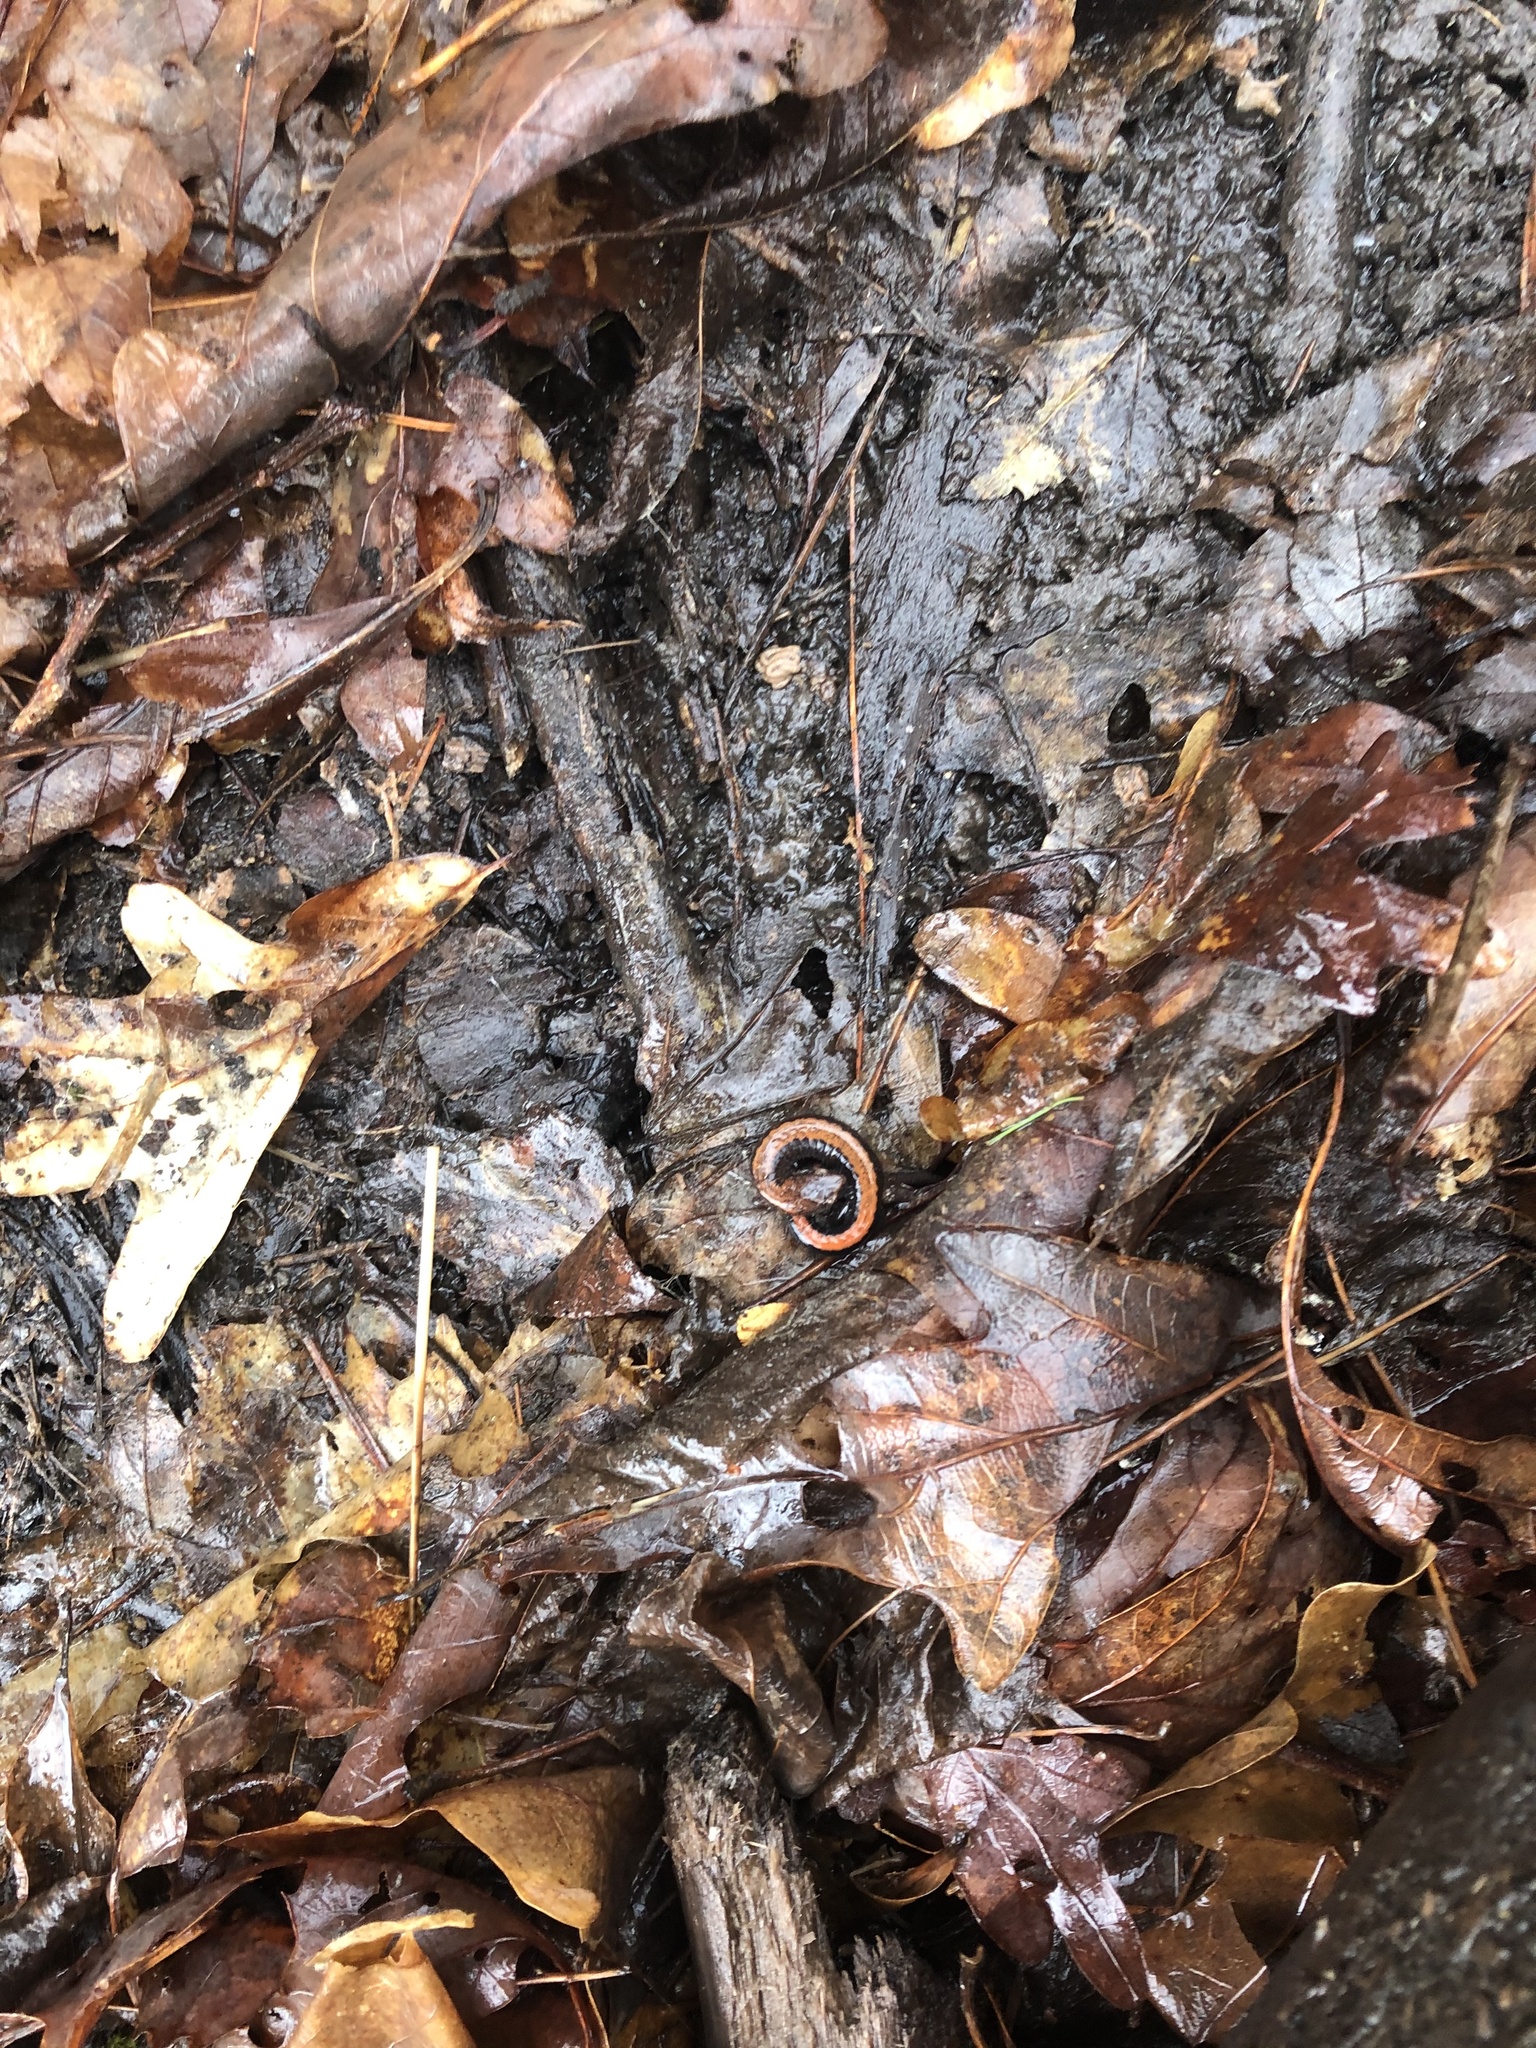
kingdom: Animalia
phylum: Chordata
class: Amphibia
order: Caudata
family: Plethodontidae
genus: Plethodon
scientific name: Plethodon cinereus
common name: Redback salamander
